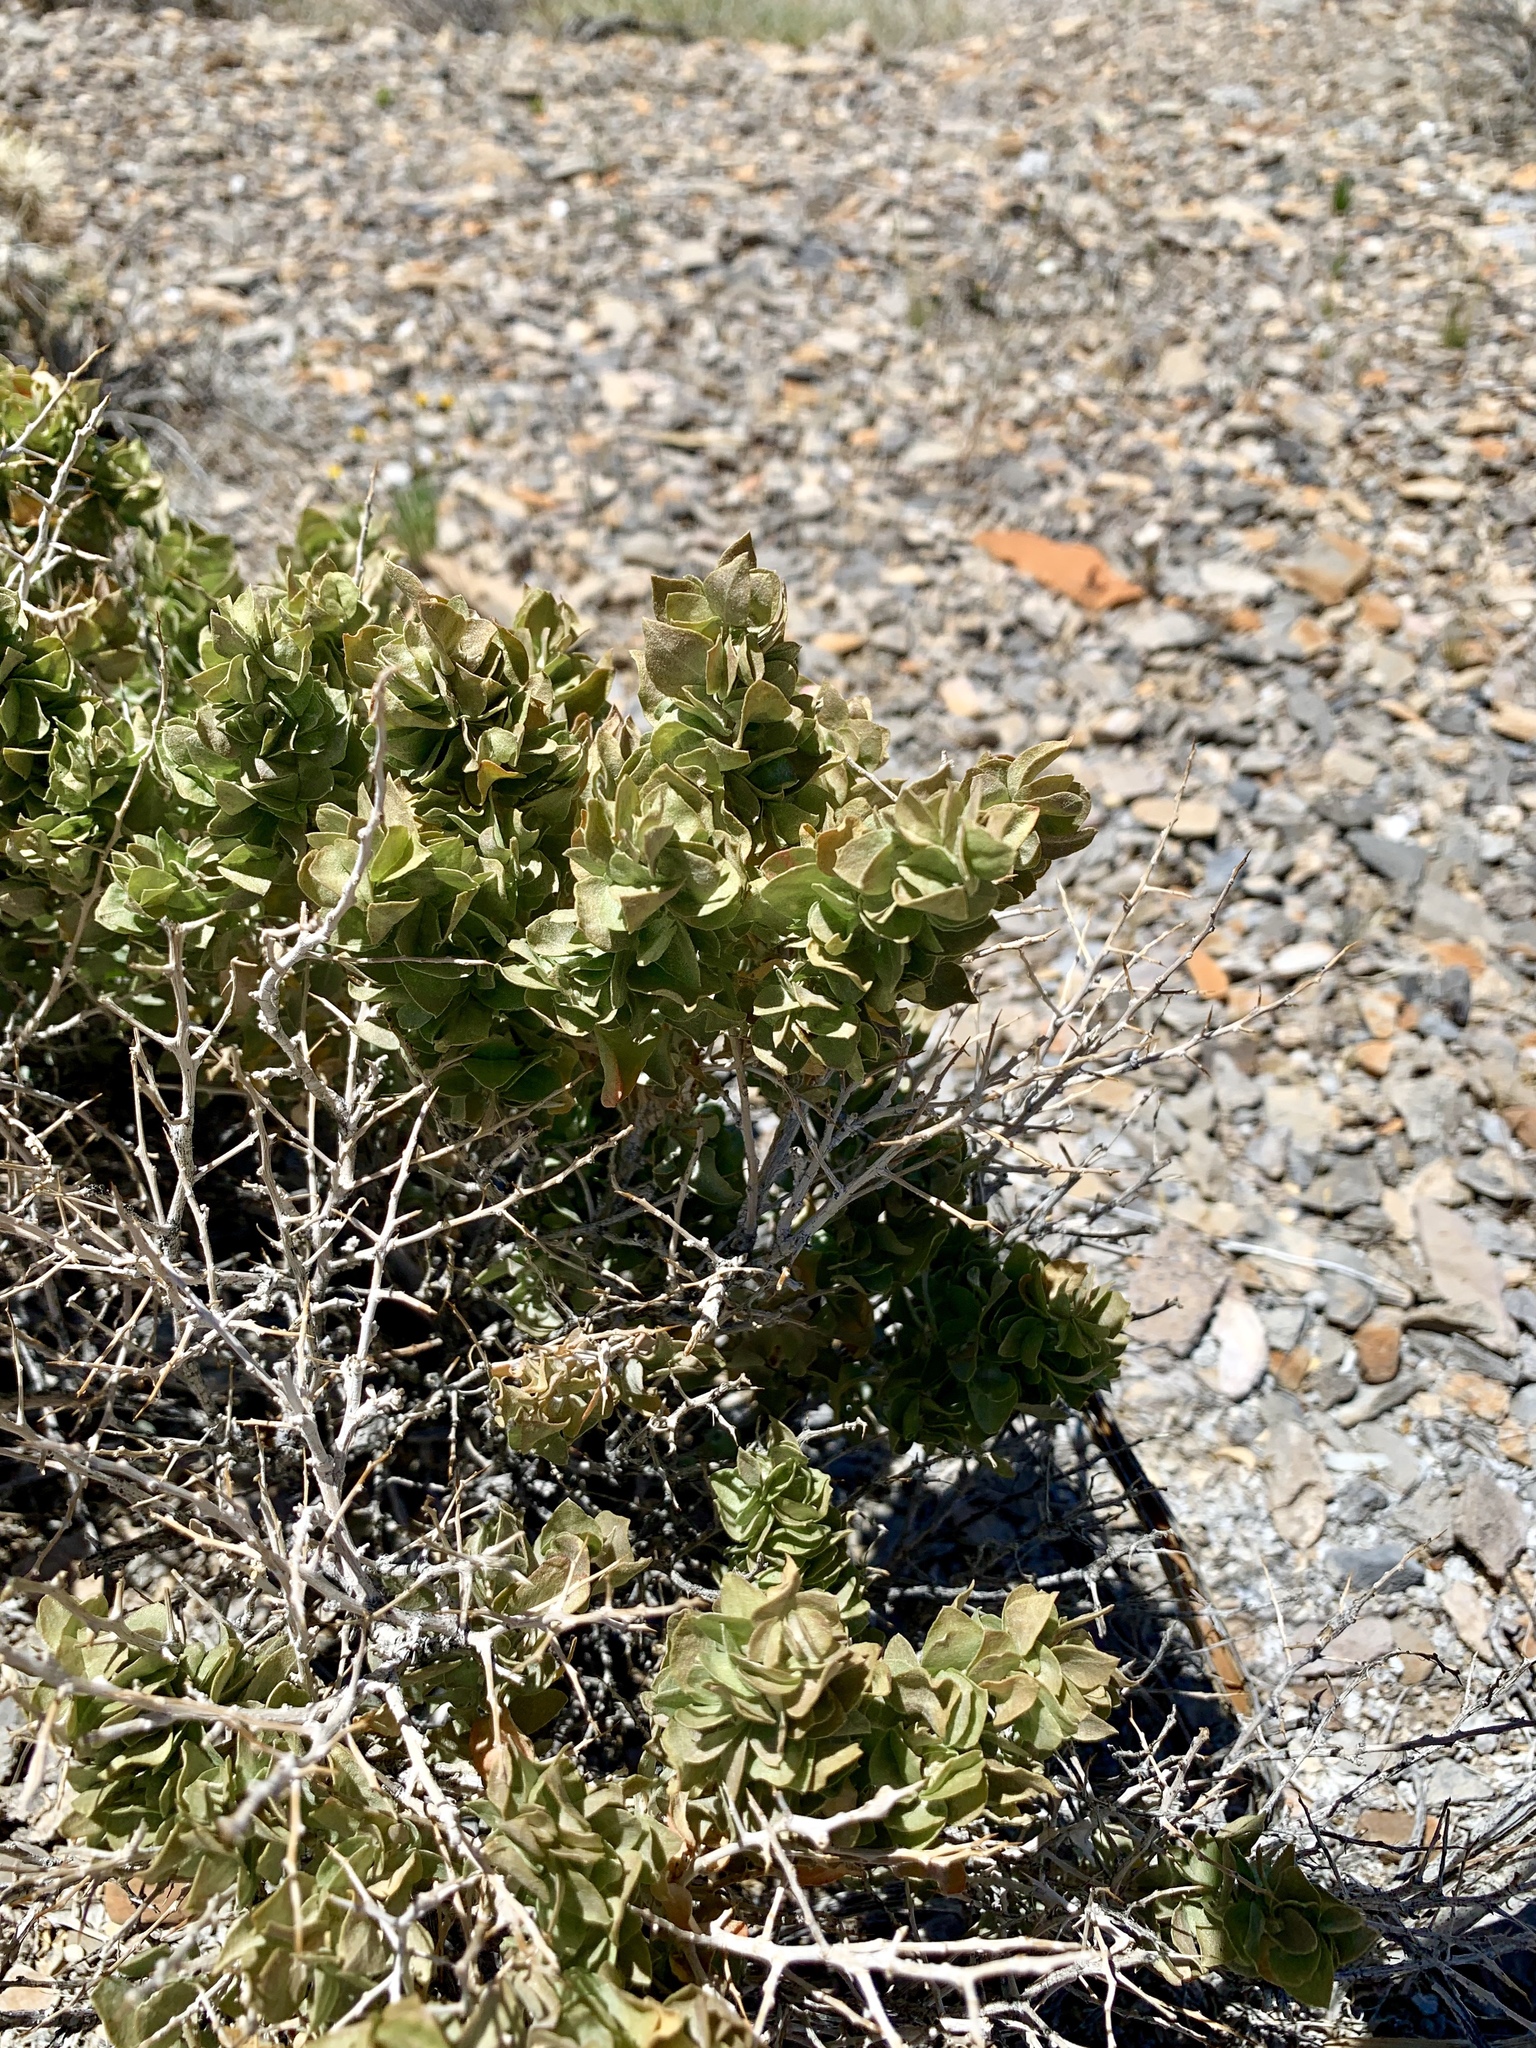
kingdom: Plantae
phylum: Tracheophyta
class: Magnoliopsida
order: Caryophyllales
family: Amaranthaceae
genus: Atriplex
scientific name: Atriplex confertifolia
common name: Shadscale
